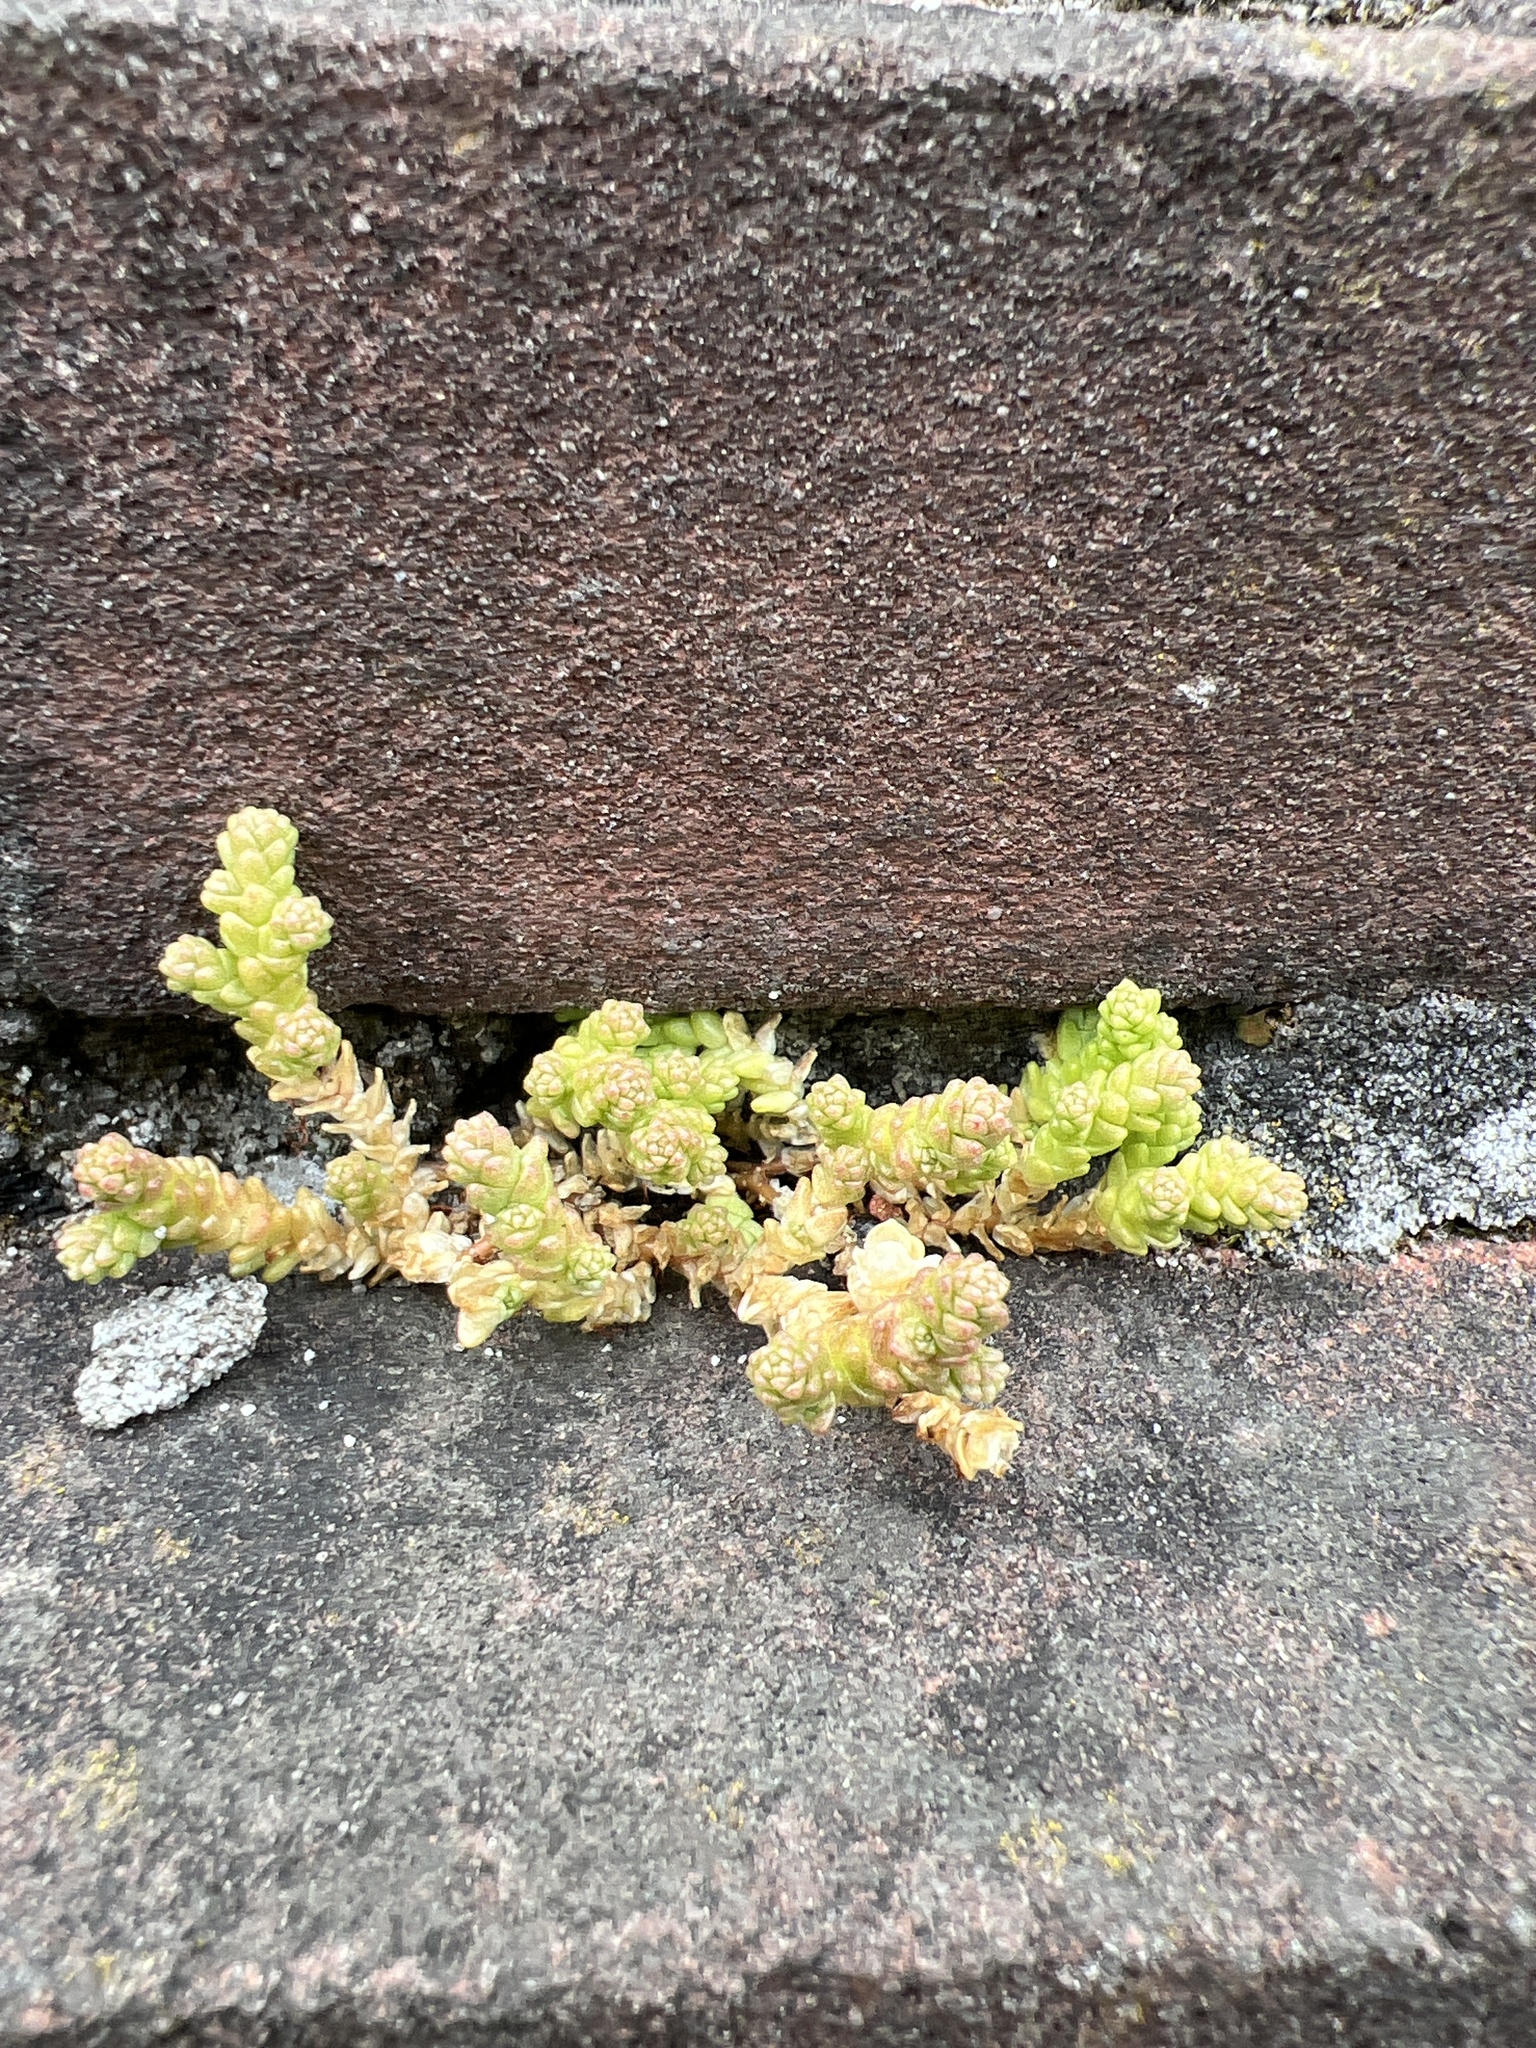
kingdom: Plantae
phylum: Tracheophyta
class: Magnoliopsida
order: Saxifragales
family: Crassulaceae
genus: Sedum
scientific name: Sedum acre
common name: Biting stonecrop
